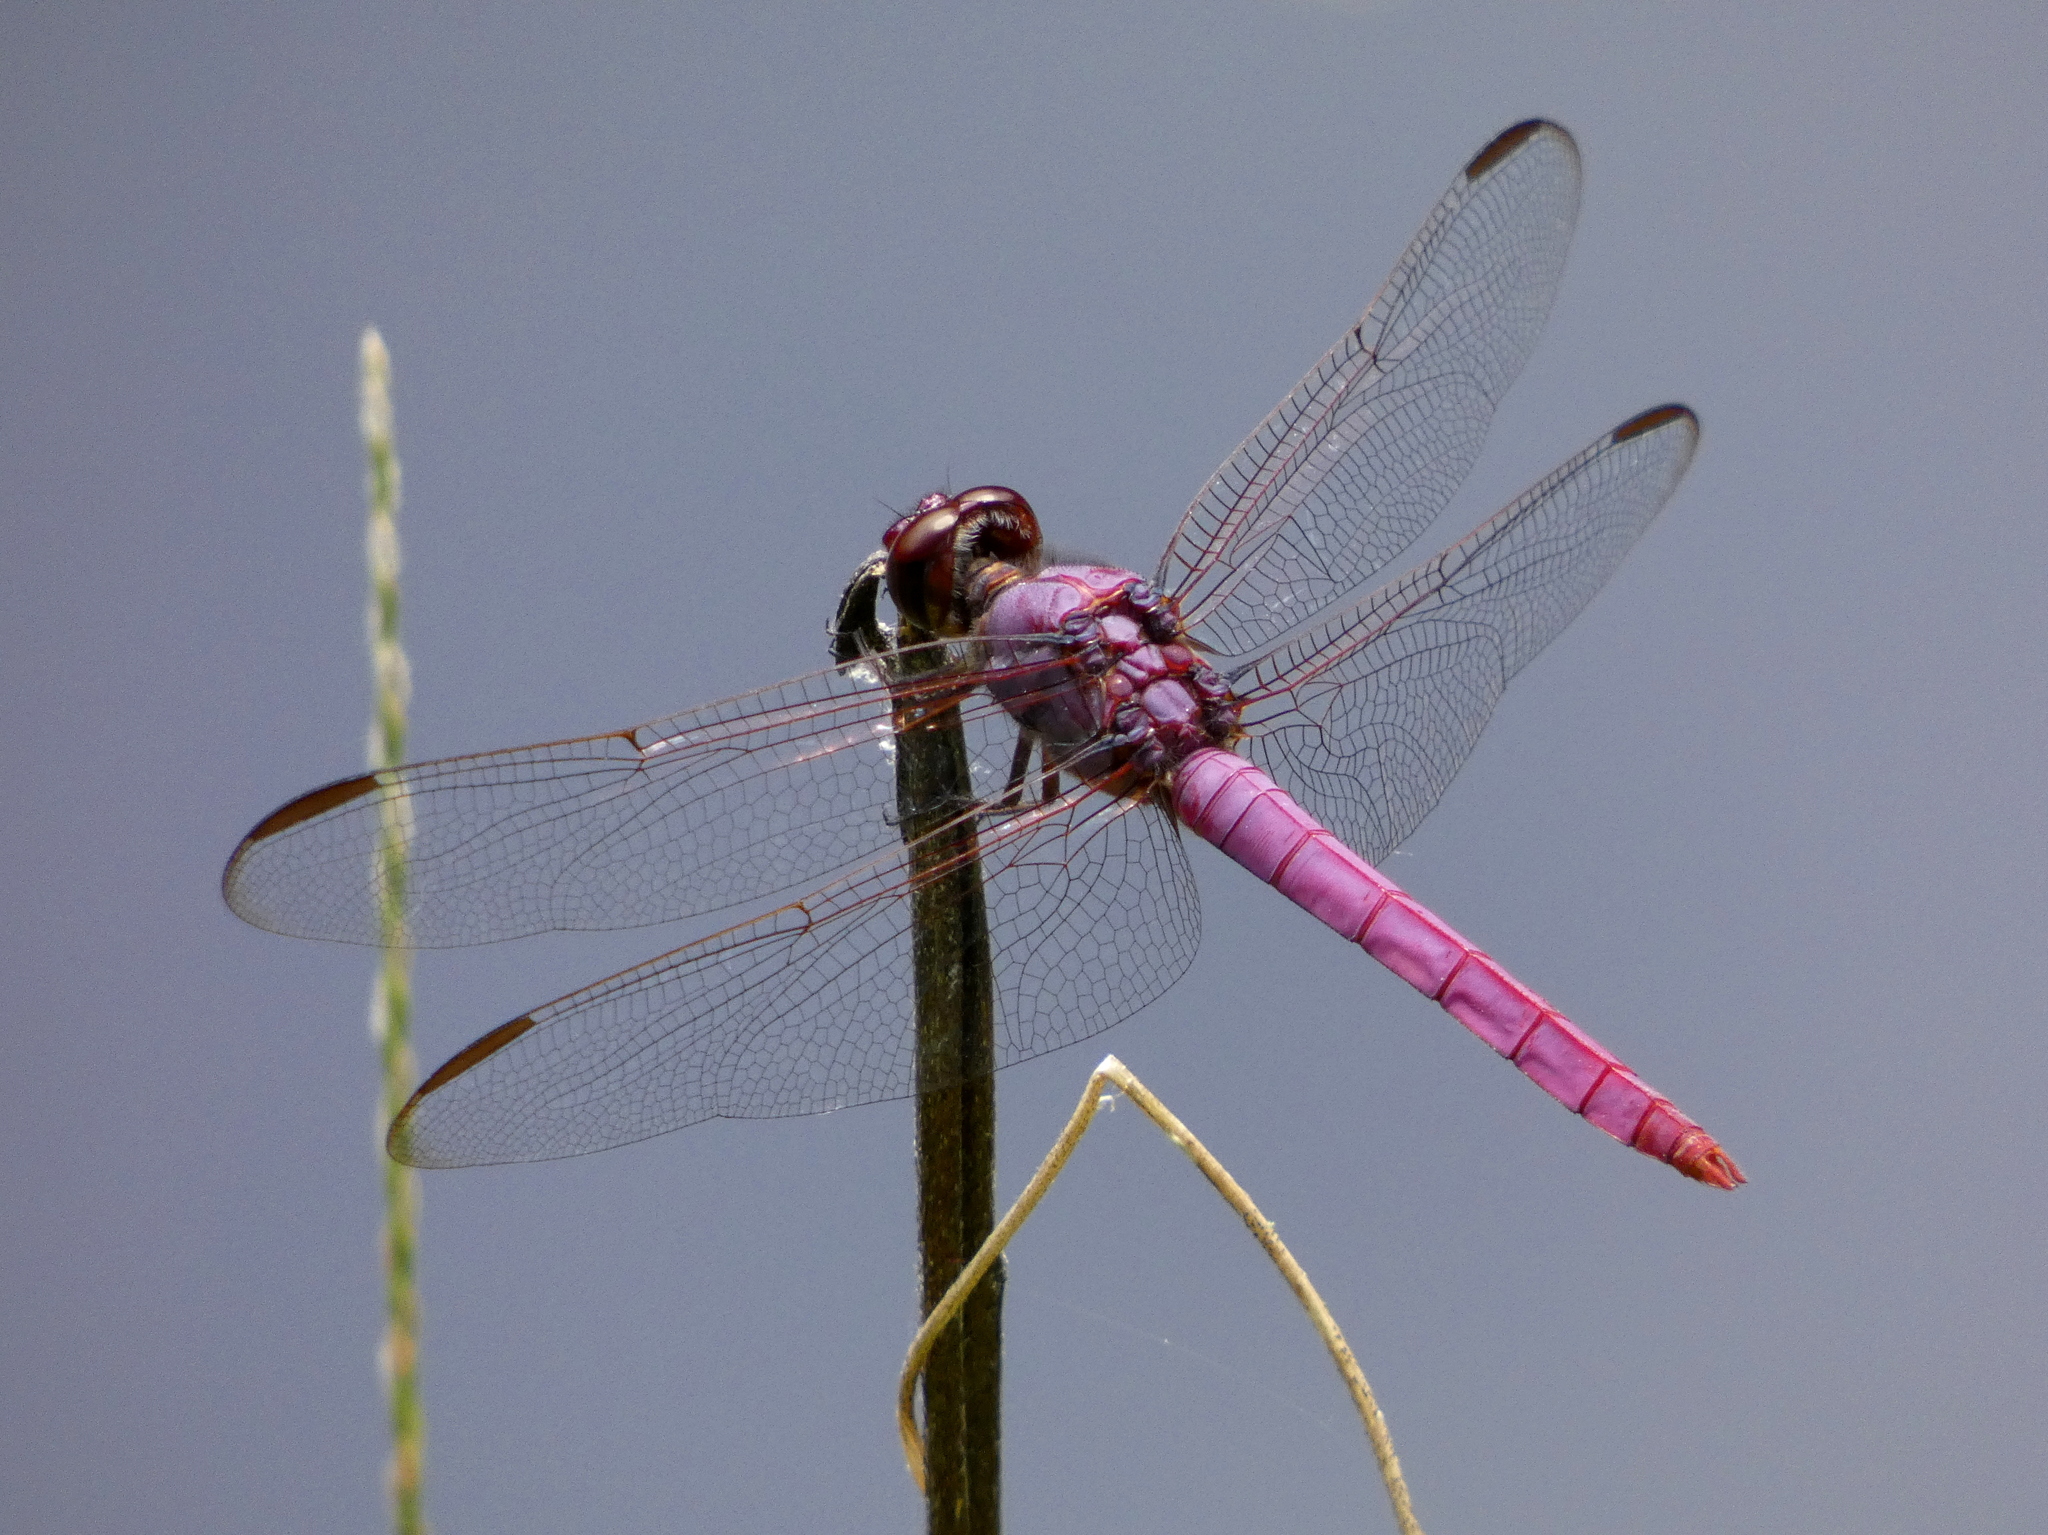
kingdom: Animalia
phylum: Arthropoda
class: Insecta
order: Odonata
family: Libellulidae
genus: Orthemis
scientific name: Orthemis ferruginea
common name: Roseate skimmer
